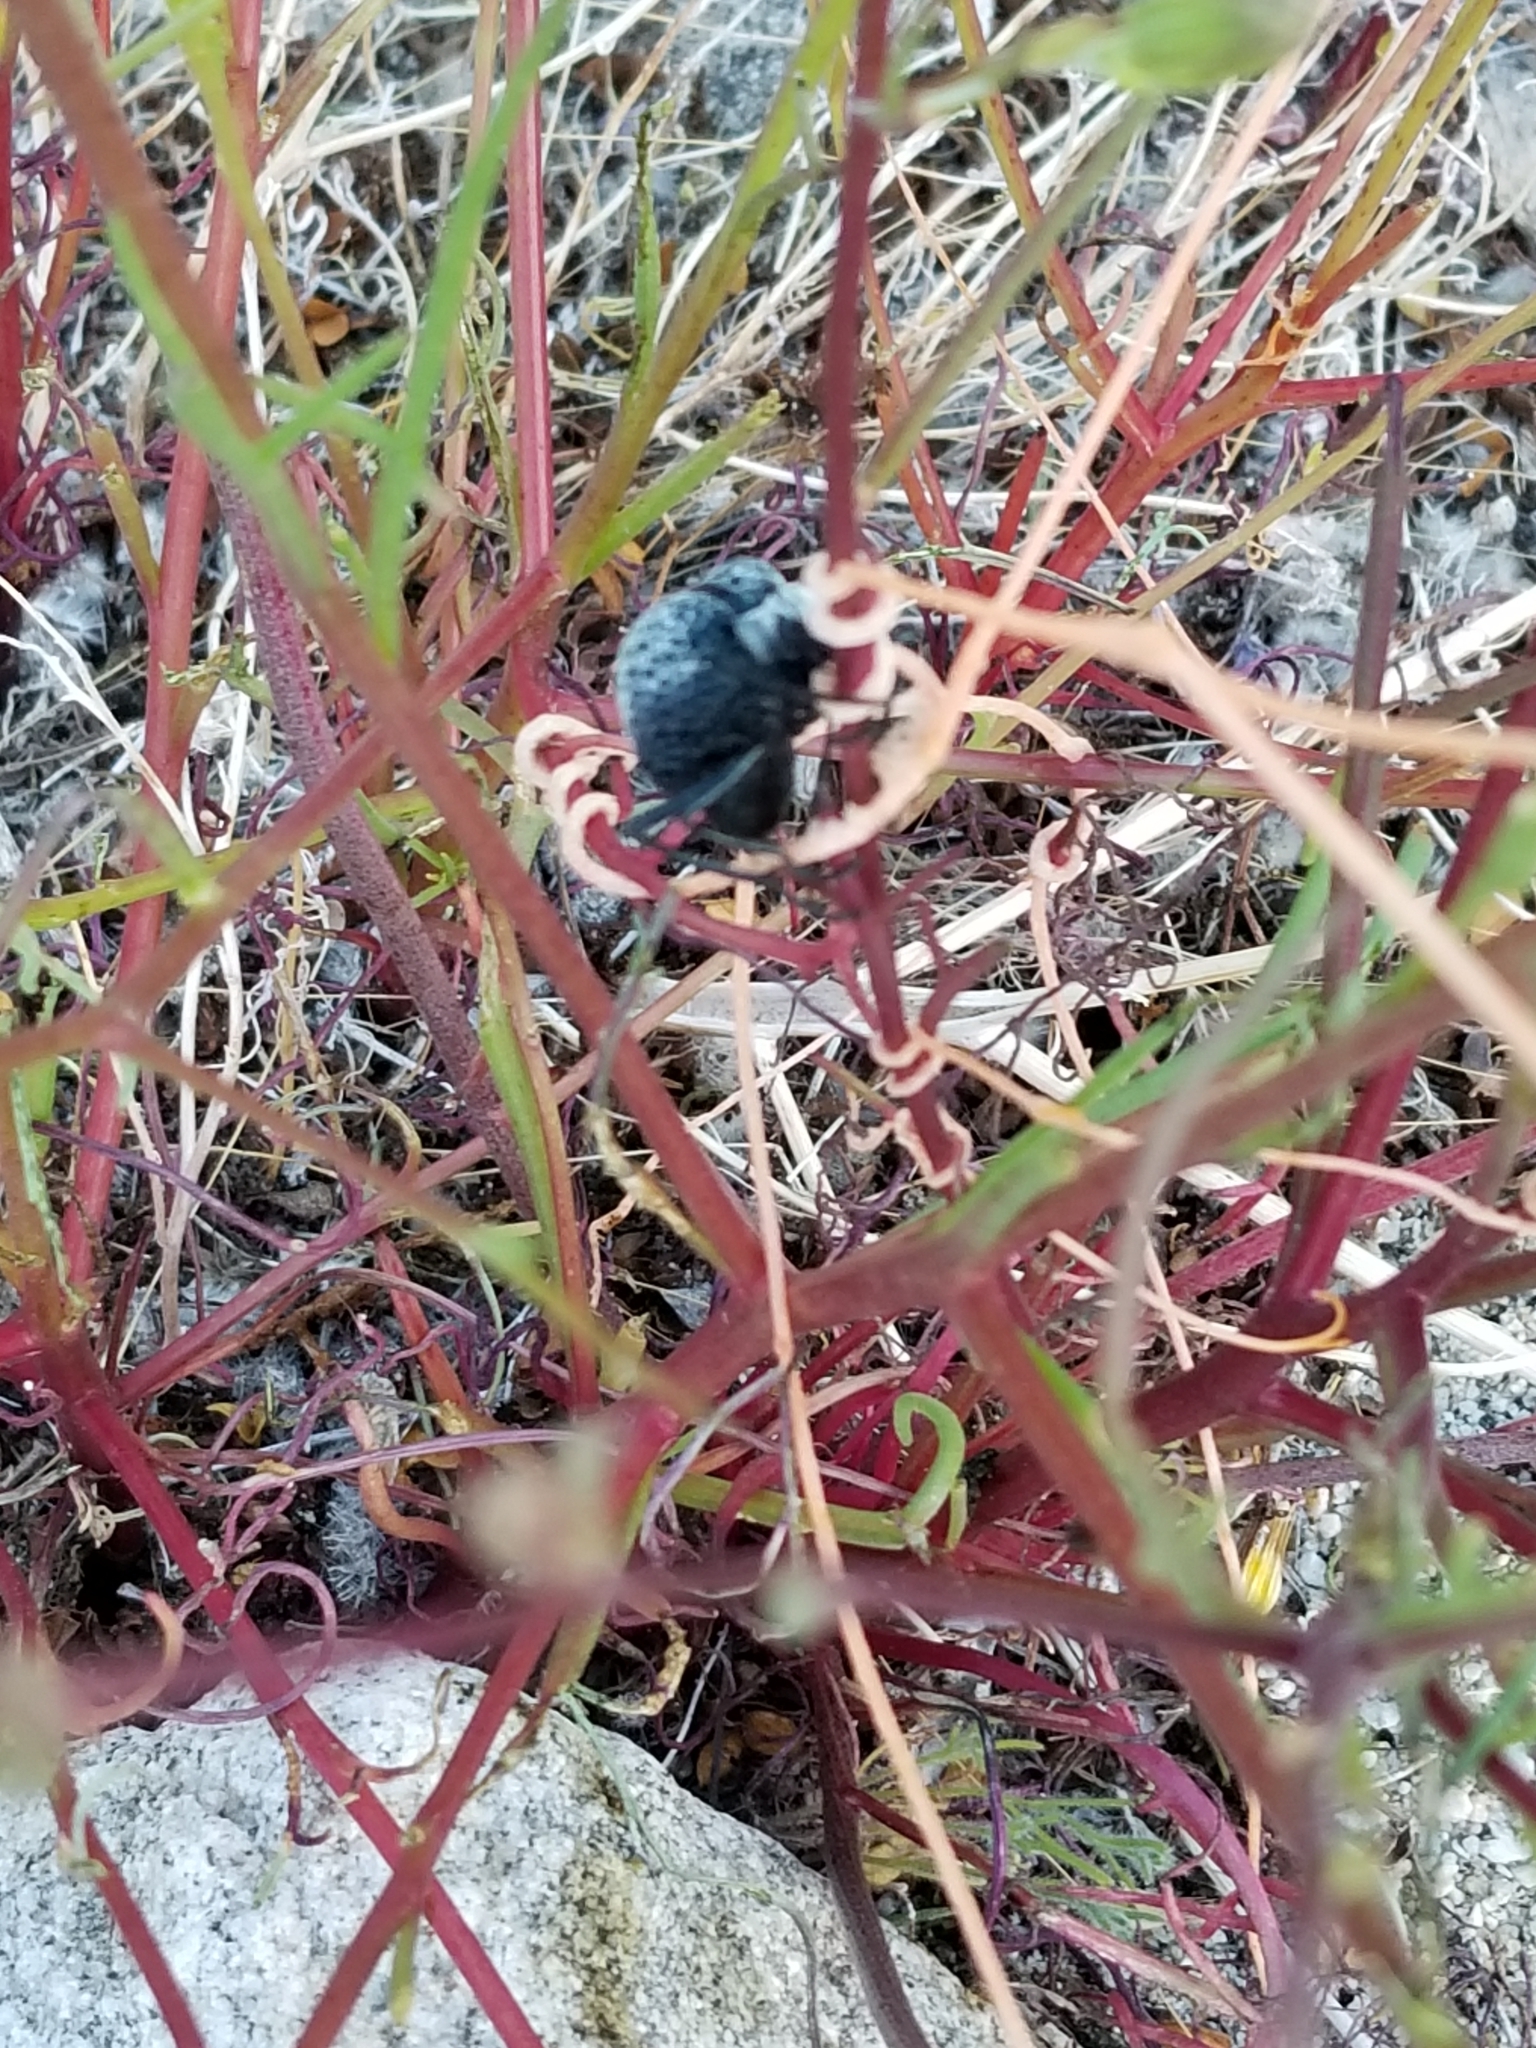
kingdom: Animalia
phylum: Arthropoda
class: Insecta
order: Coleoptera
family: Meloidae
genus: Cysteodemus
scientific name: Cysteodemus armatus
